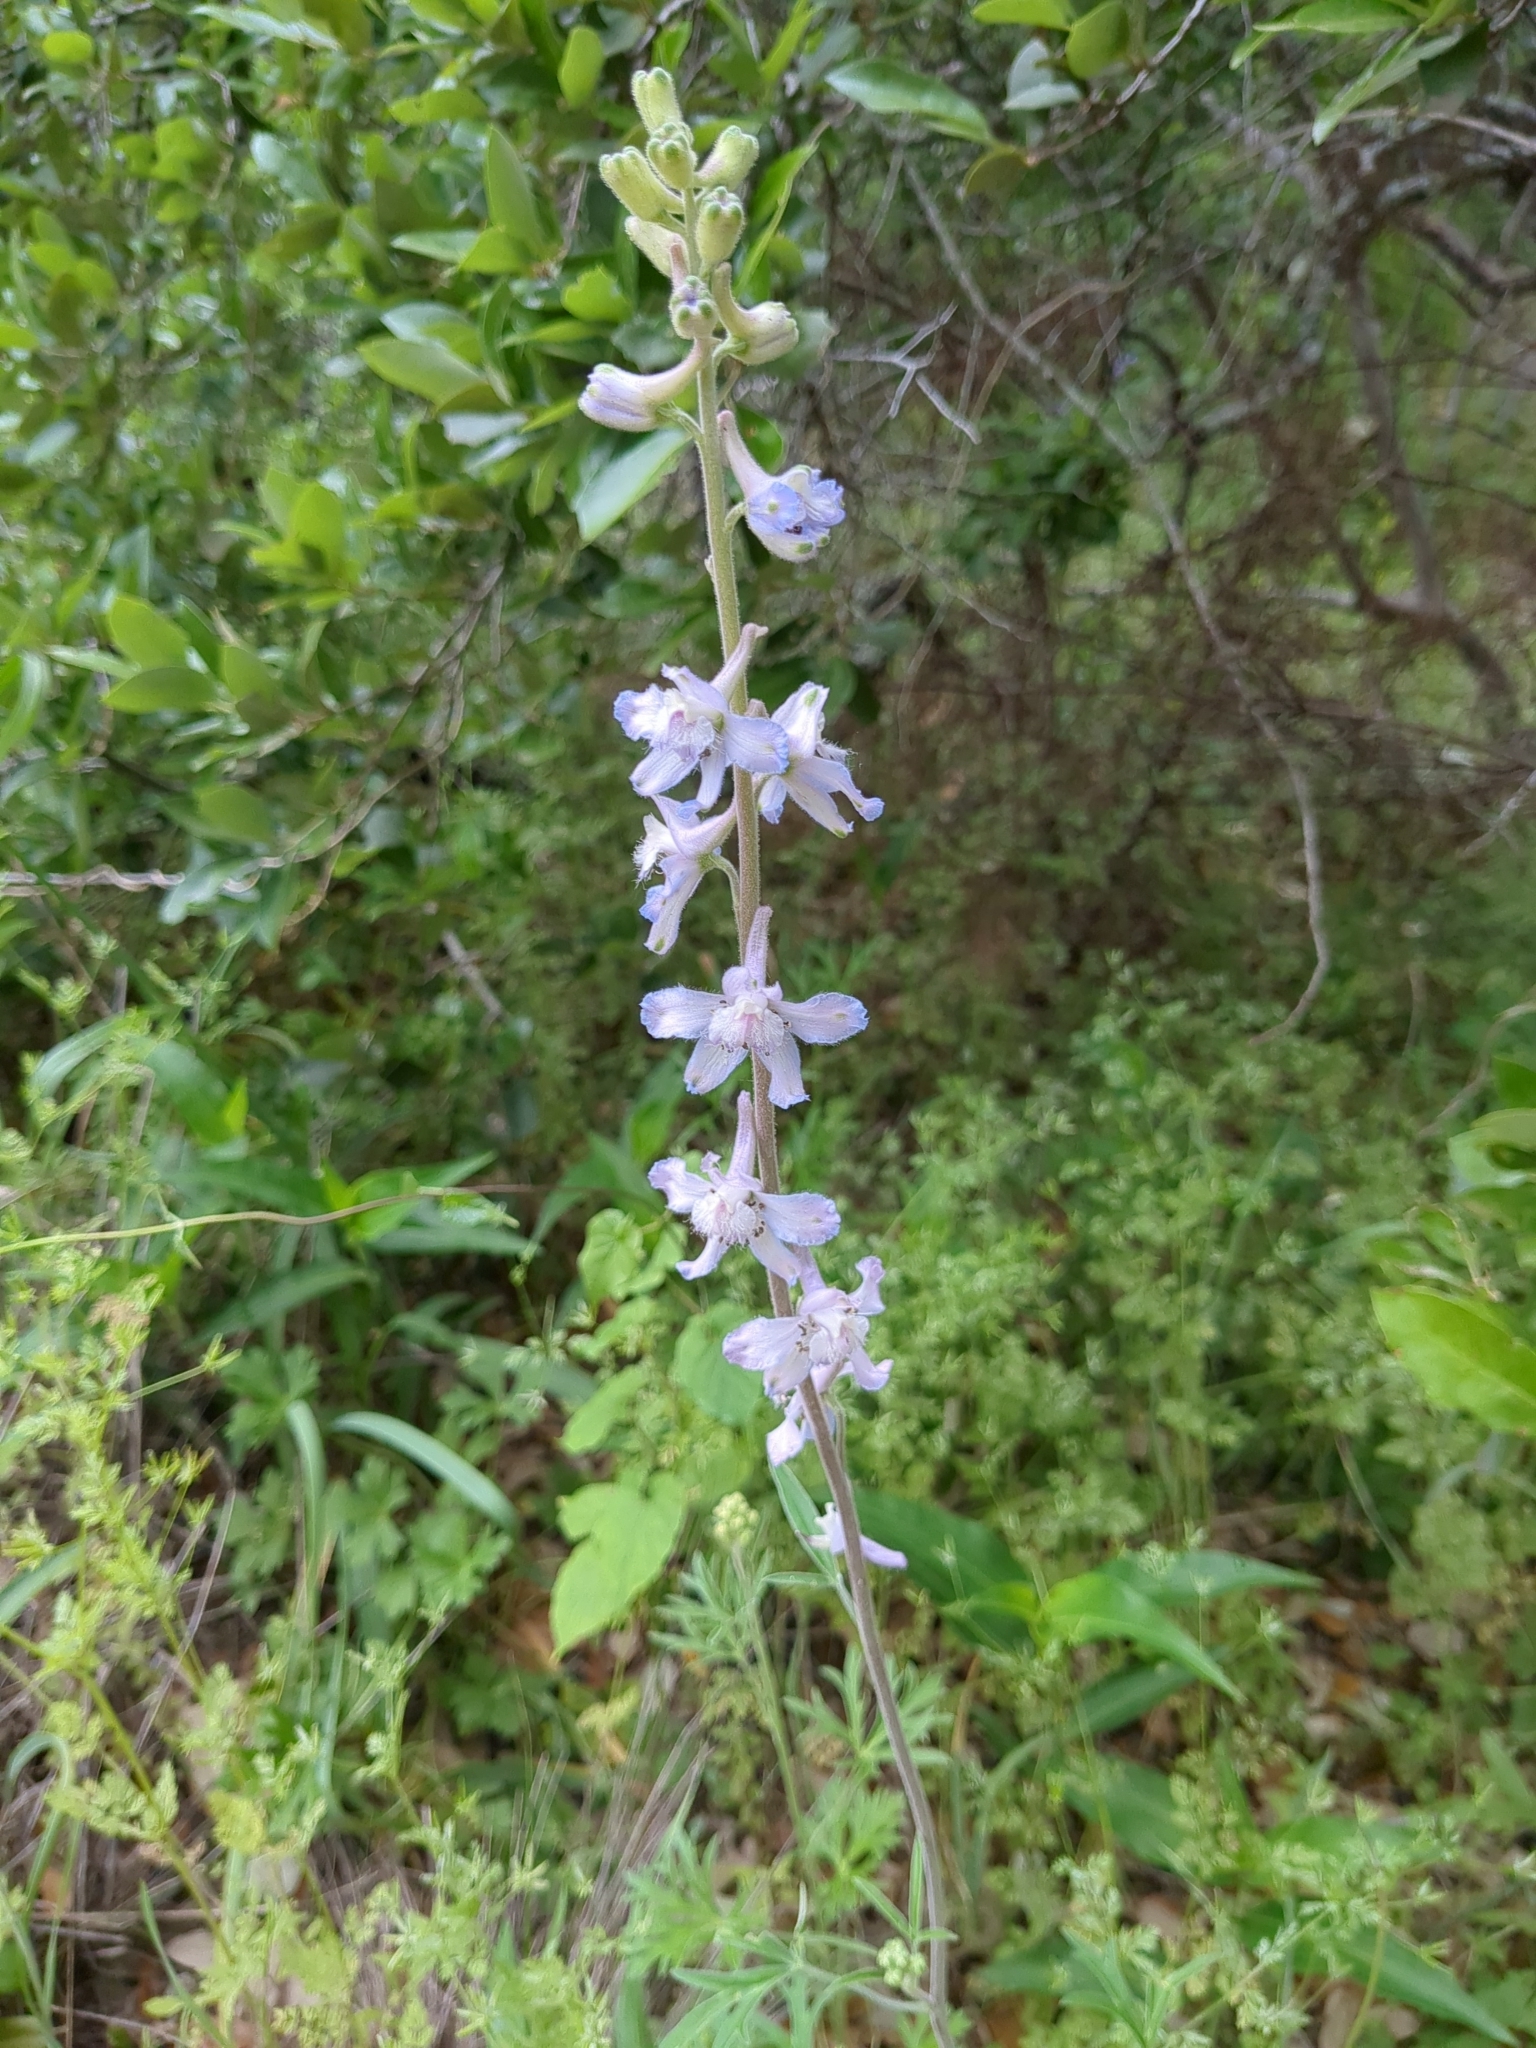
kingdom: Plantae
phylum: Tracheophyta
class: Magnoliopsida
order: Ranunculales
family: Ranunculaceae
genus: Delphinium
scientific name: Delphinium carolinianum
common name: Carolina larkspur
